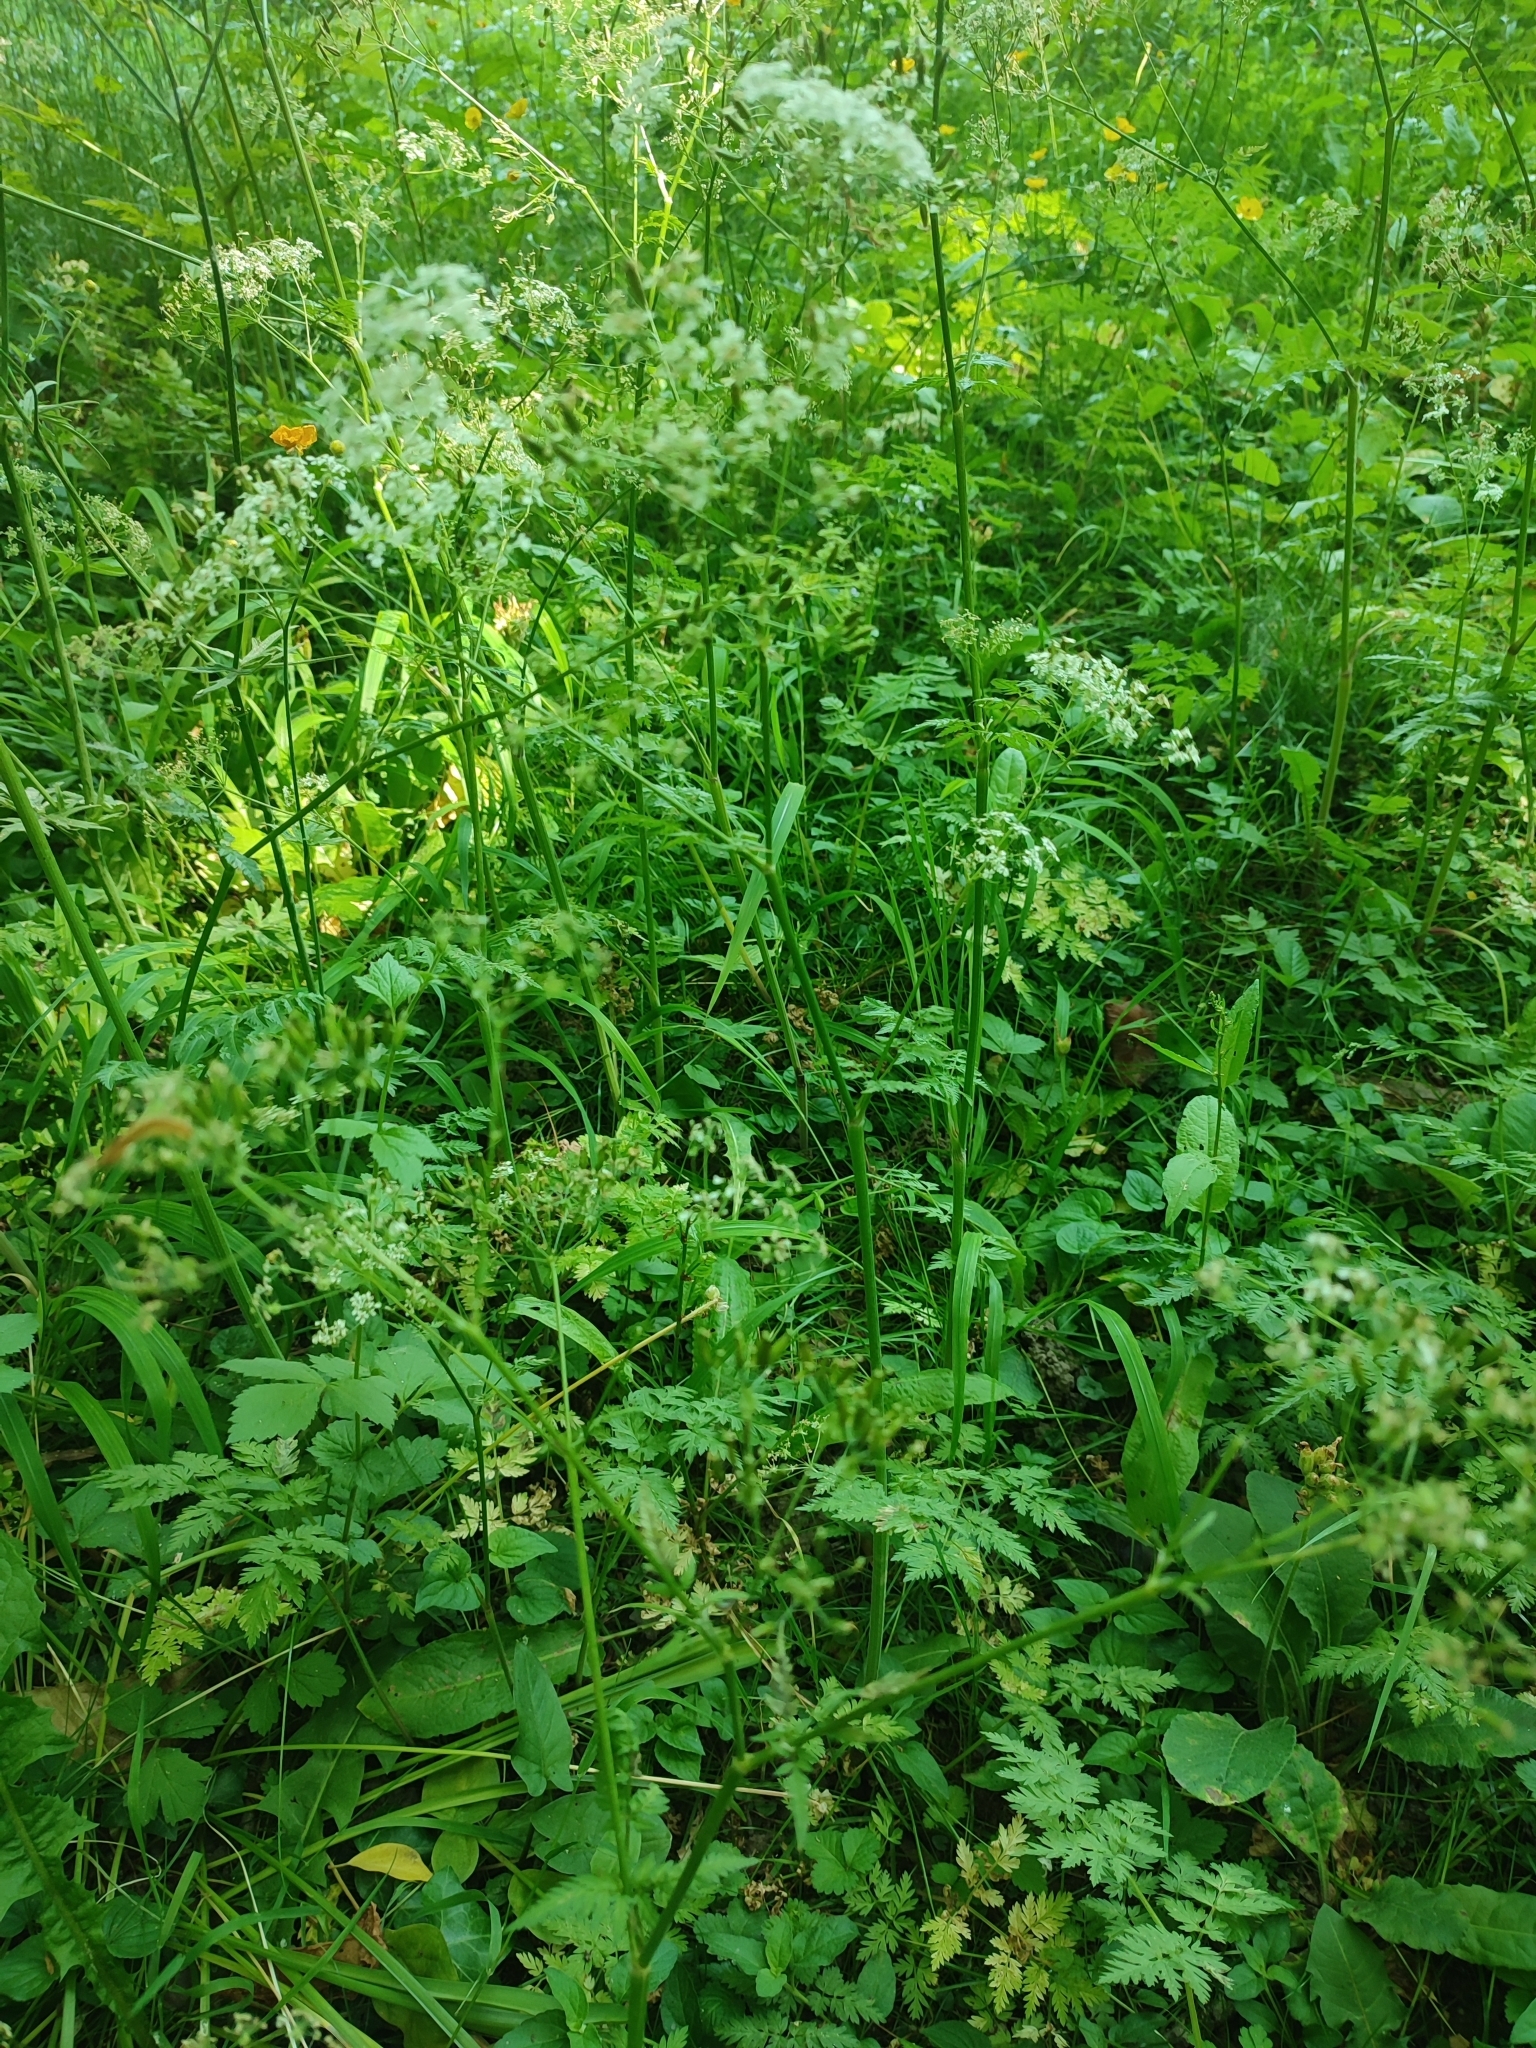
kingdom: Plantae
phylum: Tracheophyta
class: Magnoliopsida
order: Apiales
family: Apiaceae
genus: Anthriscus
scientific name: Anthriscus sylvestris
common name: Cow parsley
